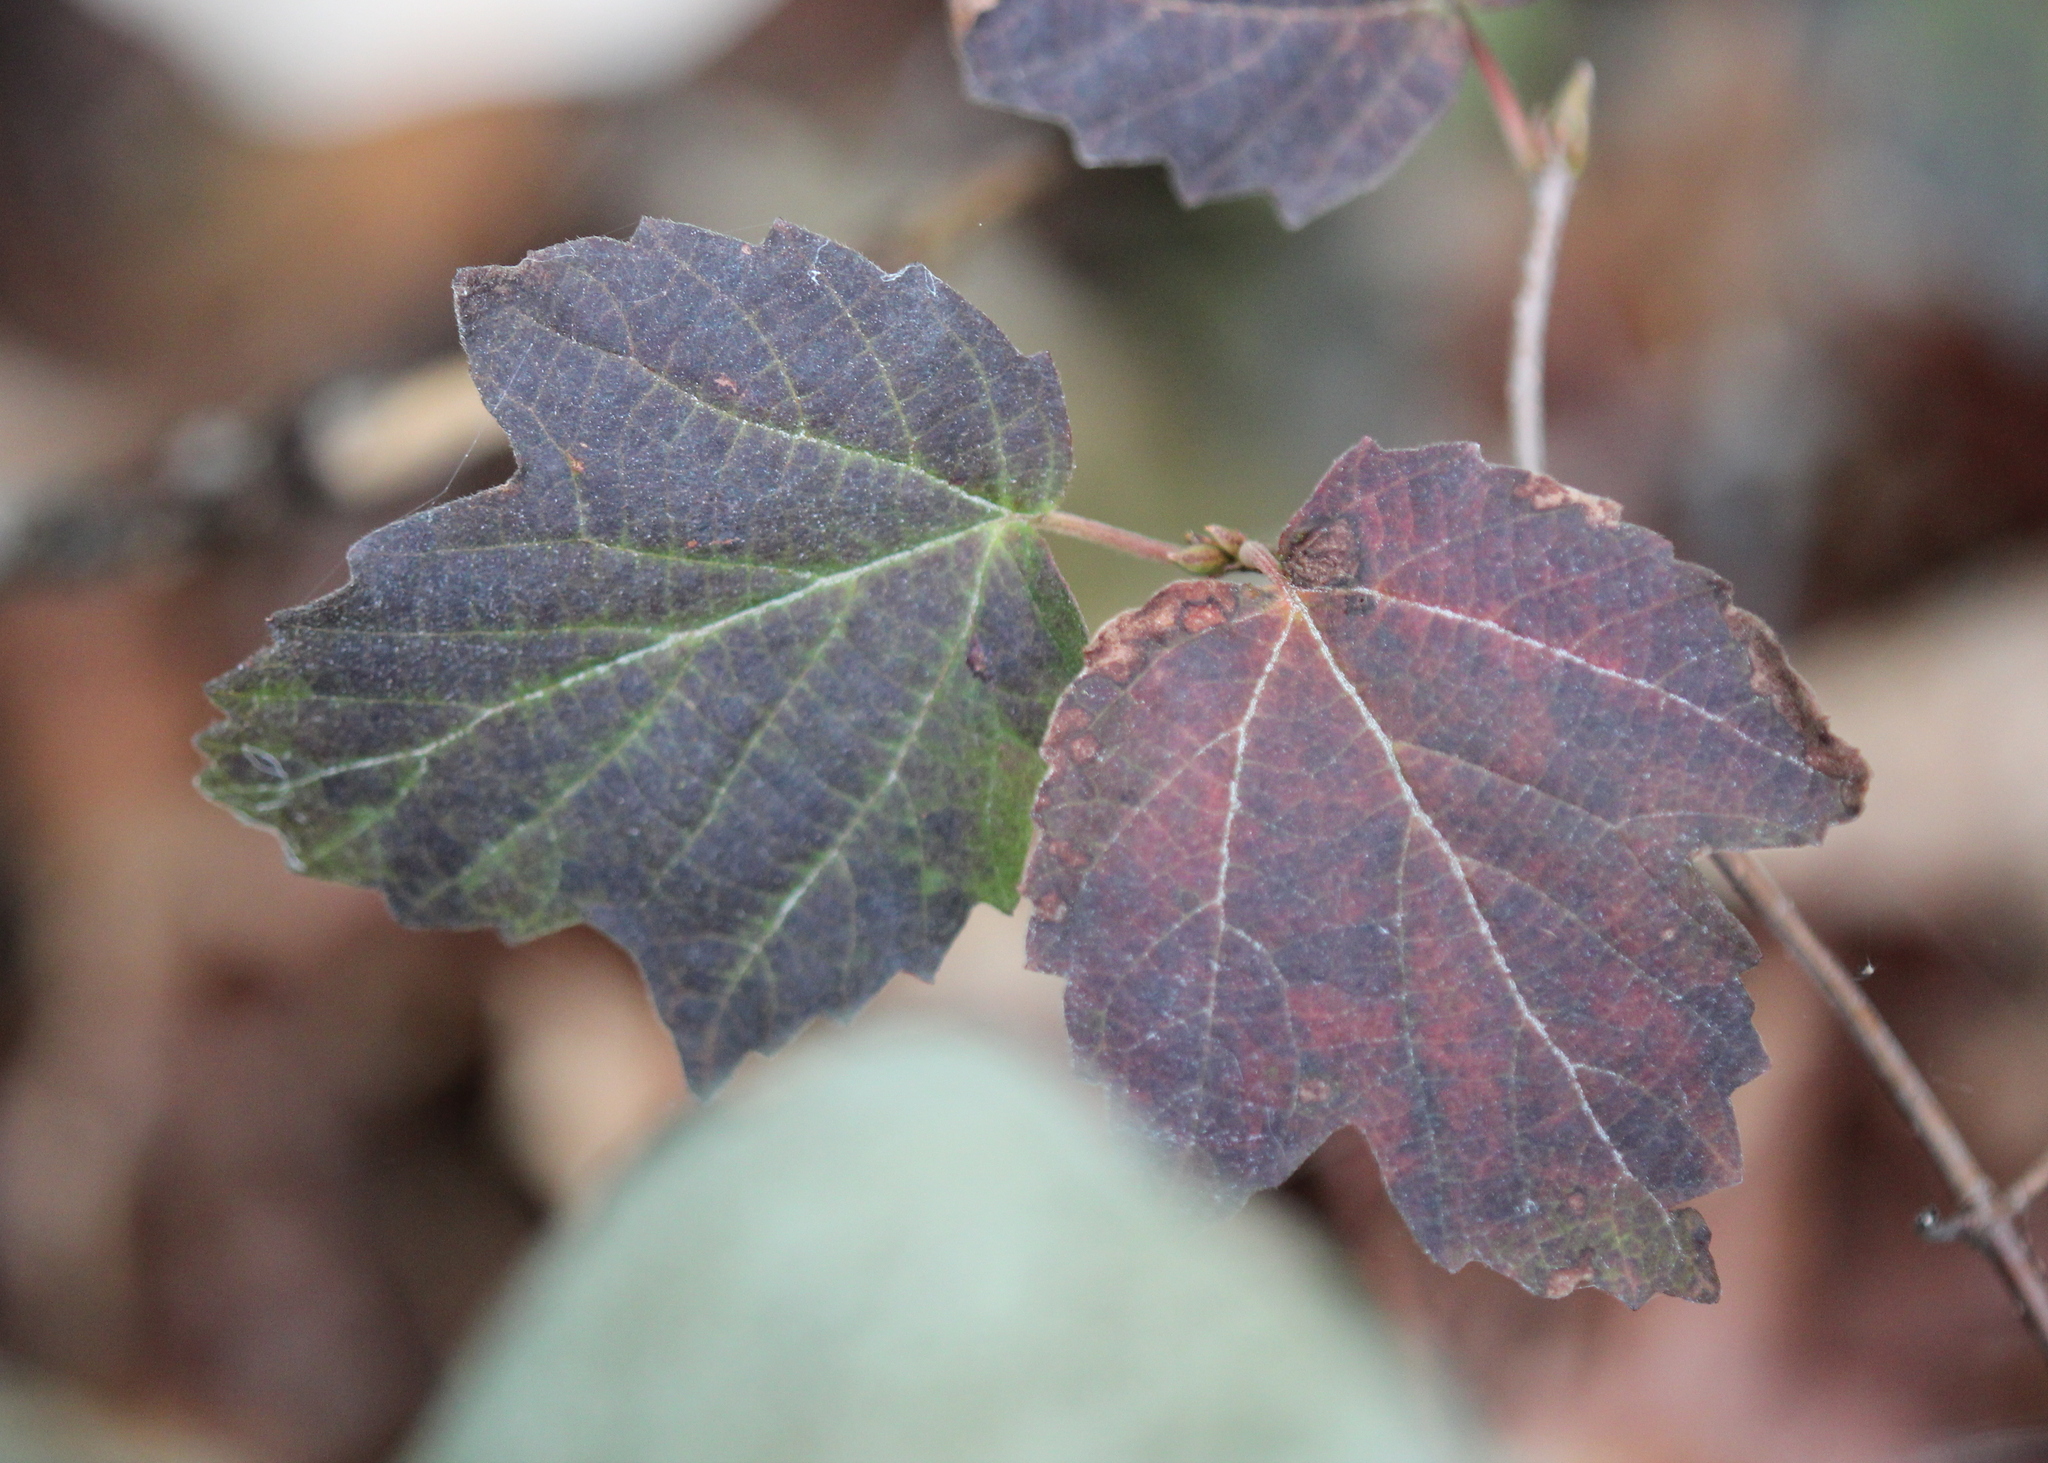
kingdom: Plantae
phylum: Tracheophyta
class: Magnoliopsida
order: Dipsacales
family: Viburnaceae
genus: Viburnum
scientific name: Viburnum acerifolium
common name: Dockmackie
